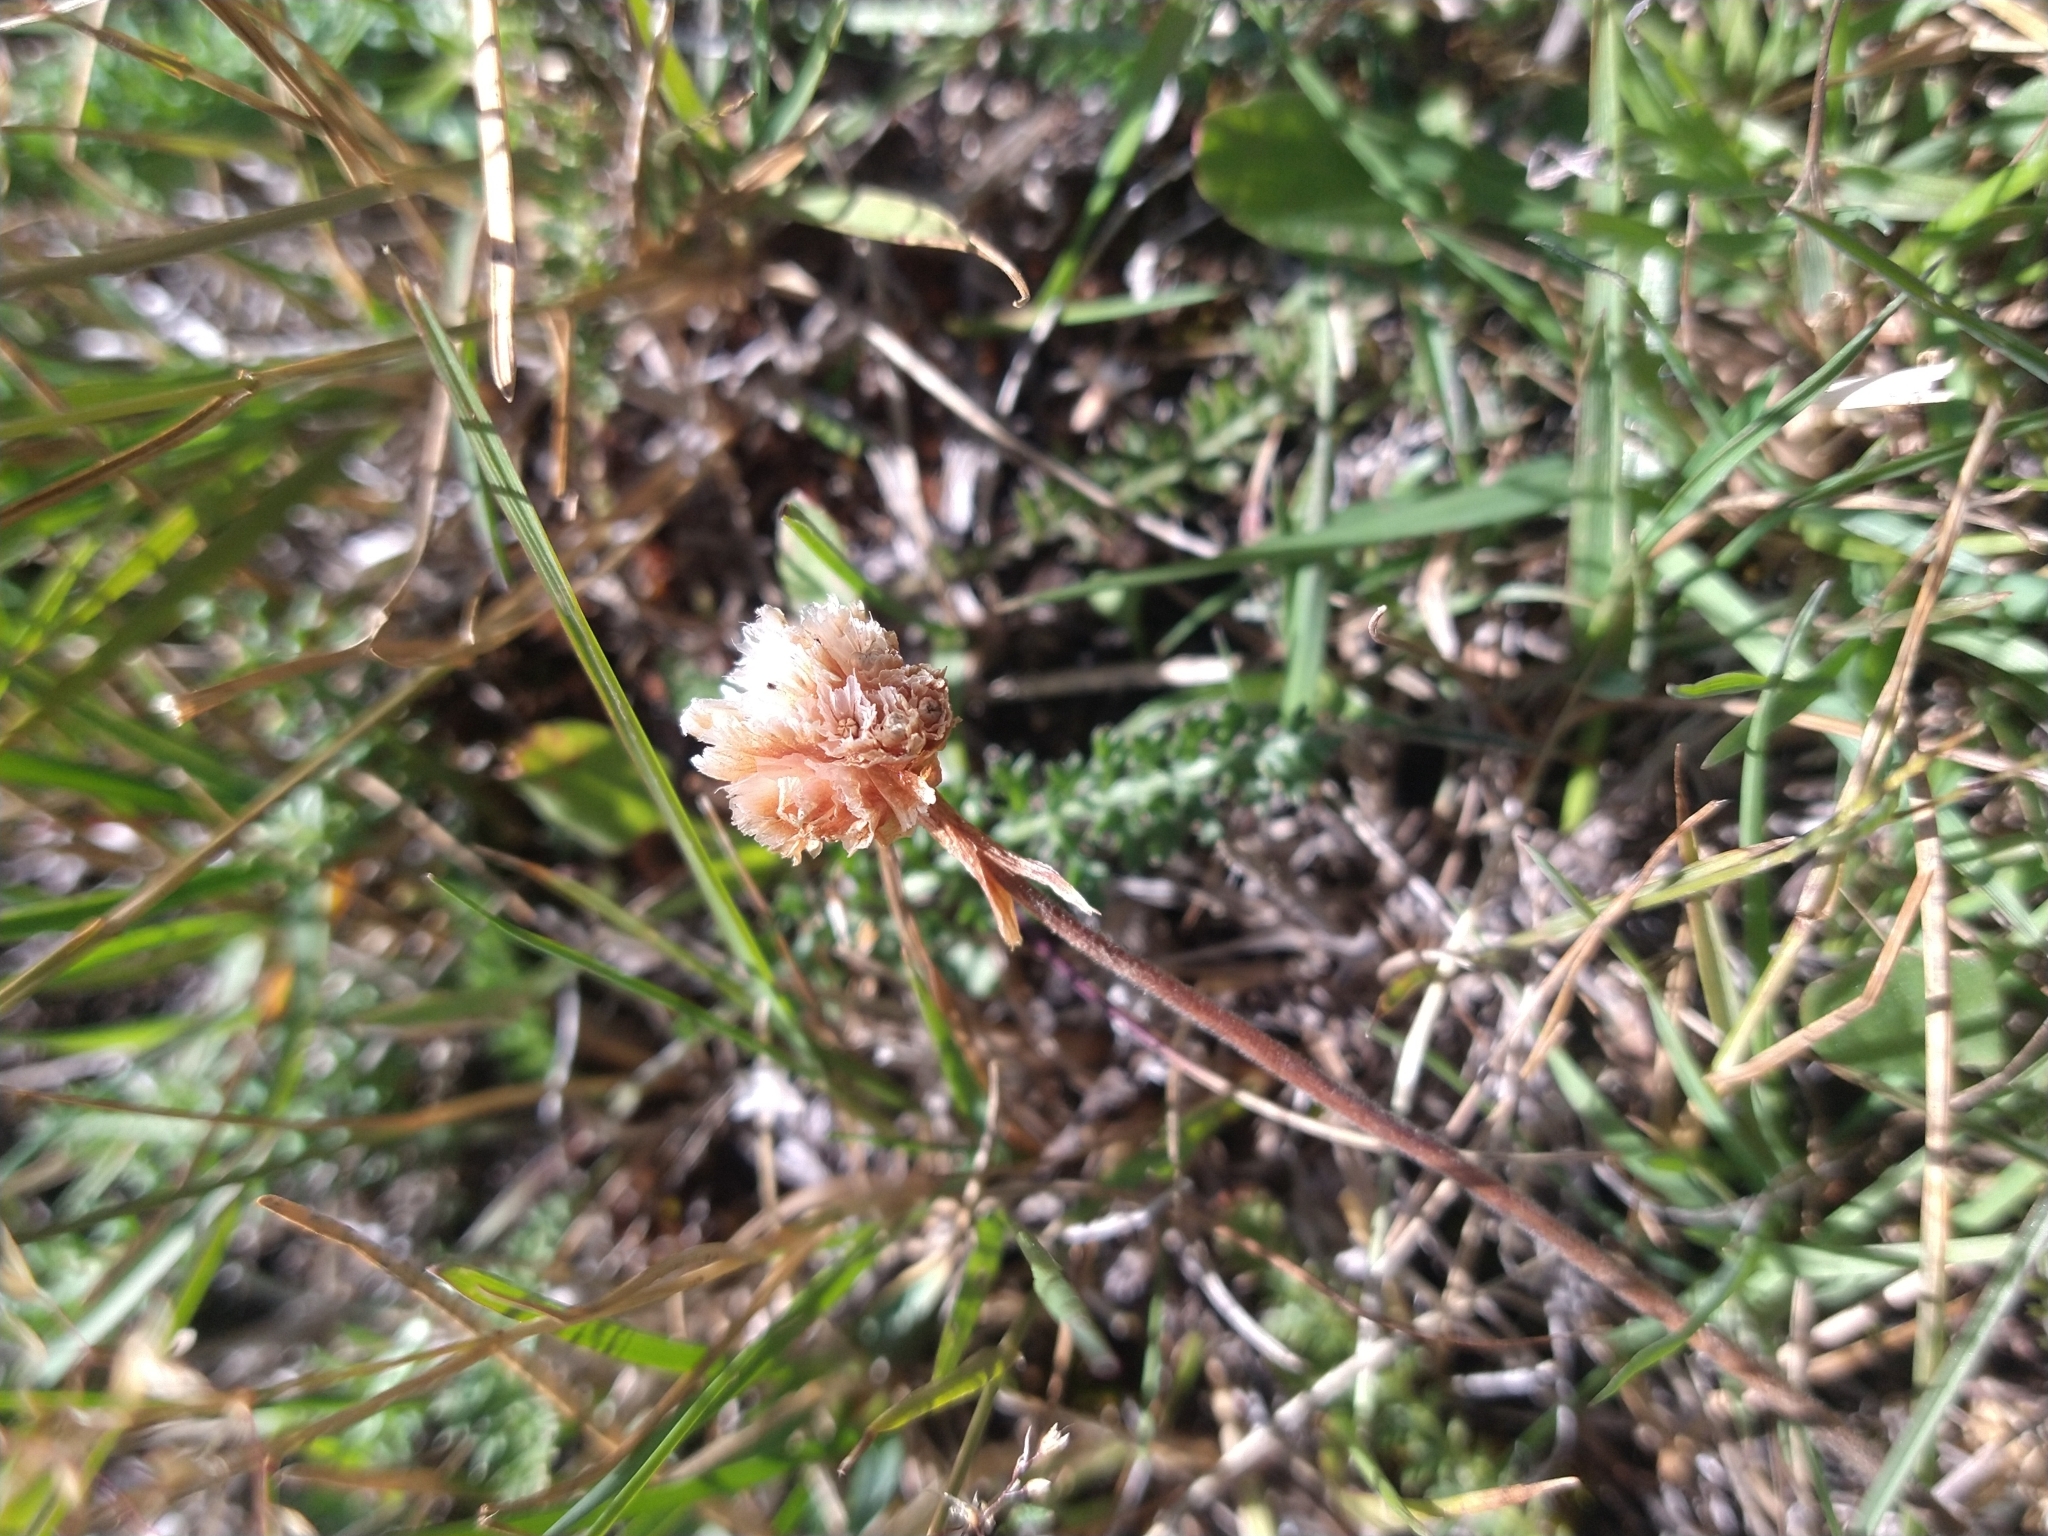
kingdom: Plantae
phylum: Tracheophyta
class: Magnoliopsida
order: Caryophyllales
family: Plumbaginaceae
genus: Armeria
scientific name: Armeria curvifolia
